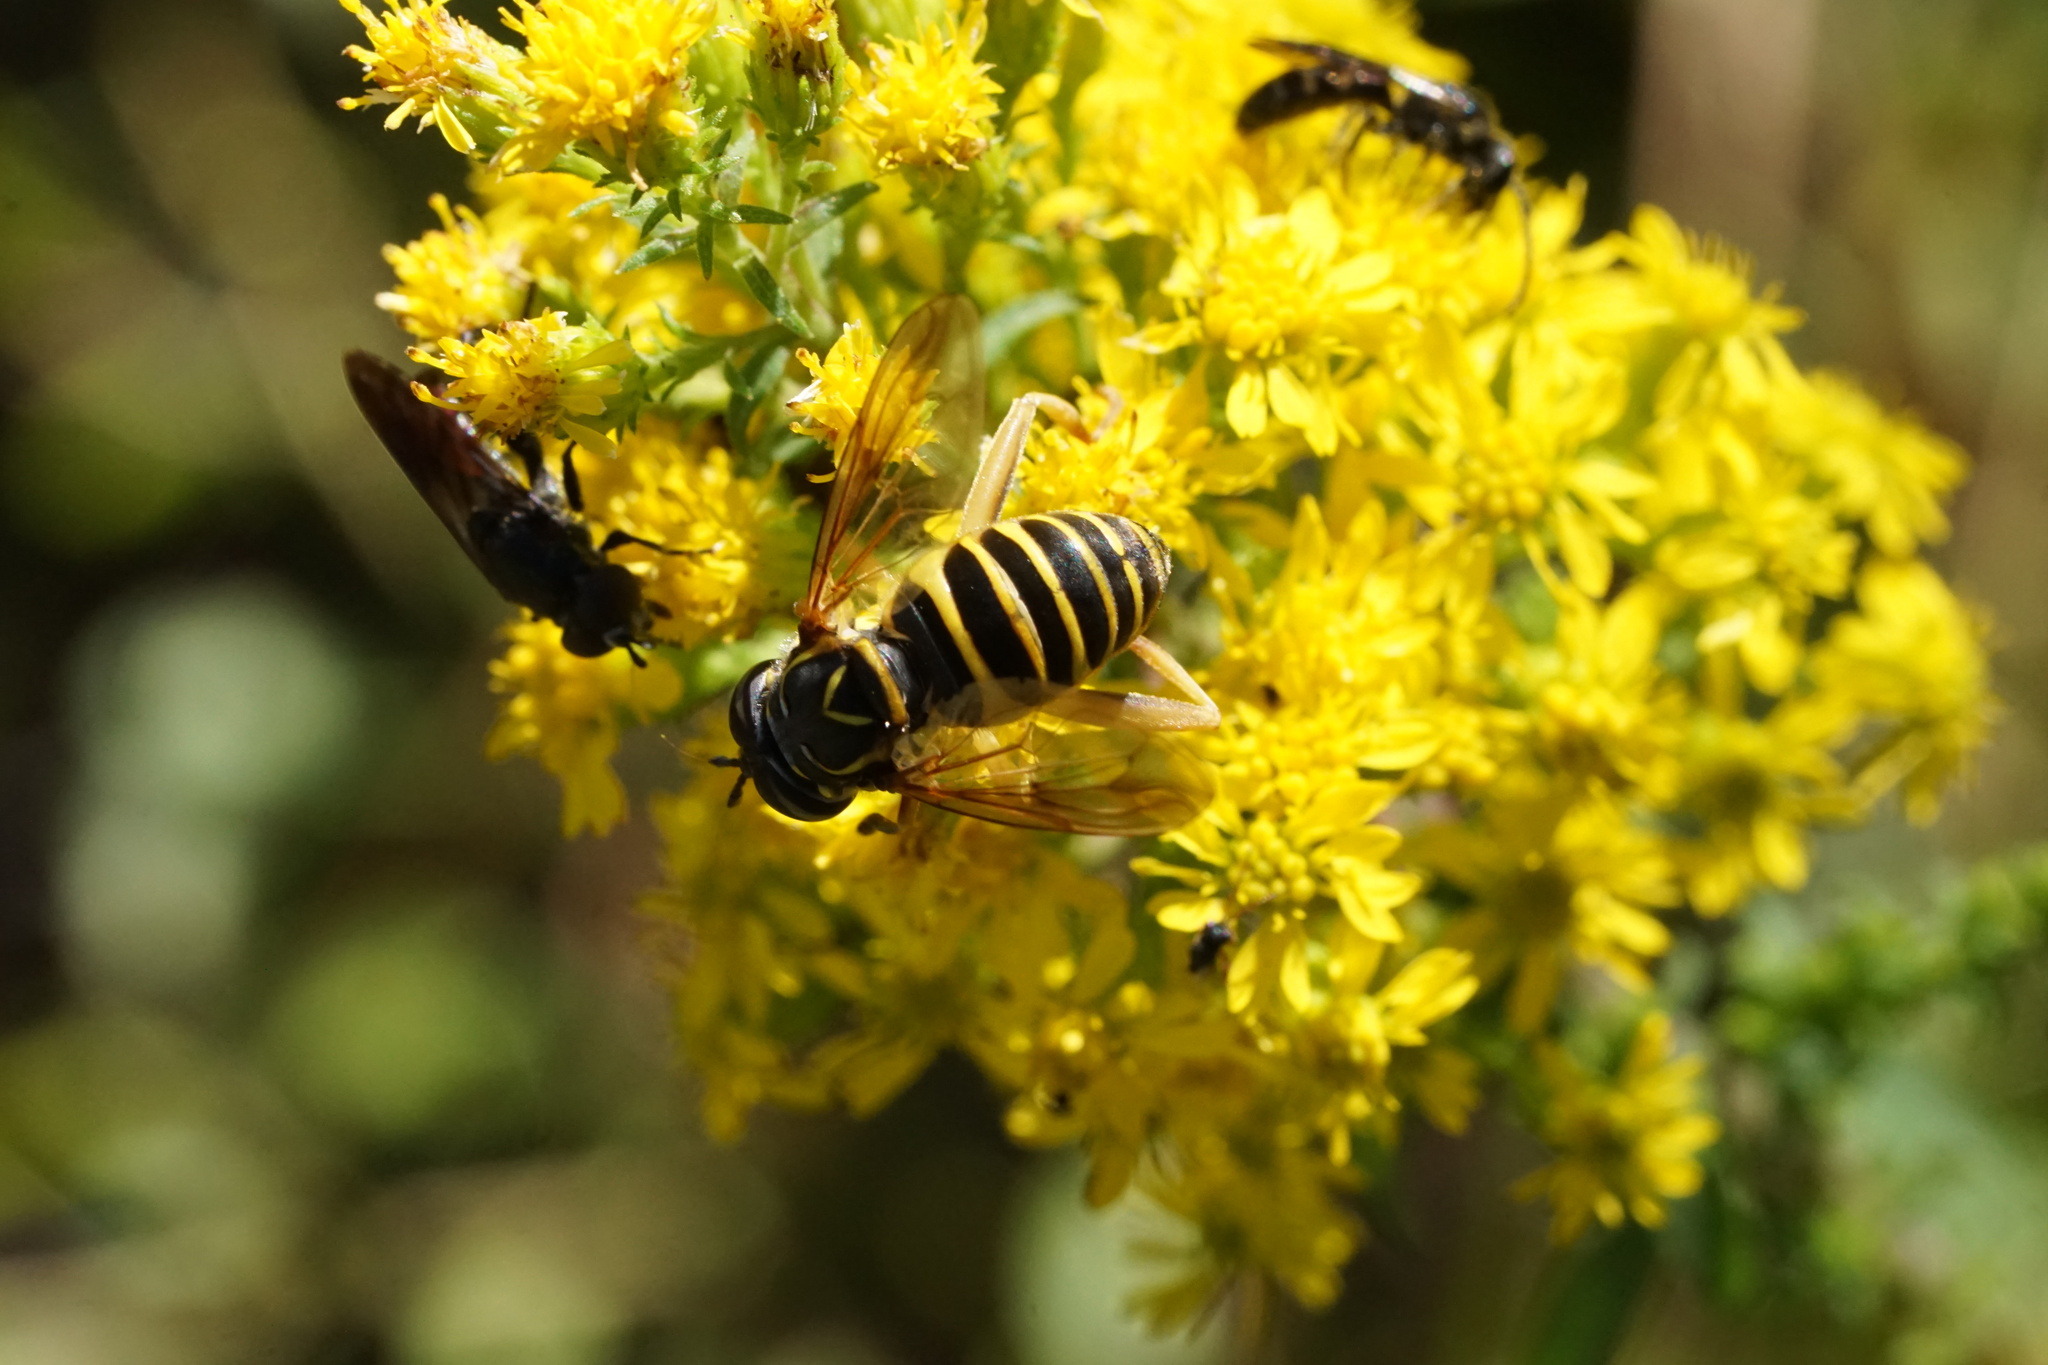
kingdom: Animalia
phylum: Arthropoda
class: Insecta
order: Diptera
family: Syrphidae
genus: Spilomyia
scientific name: Spilomyia longicornis
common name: Eastern hornet fly
